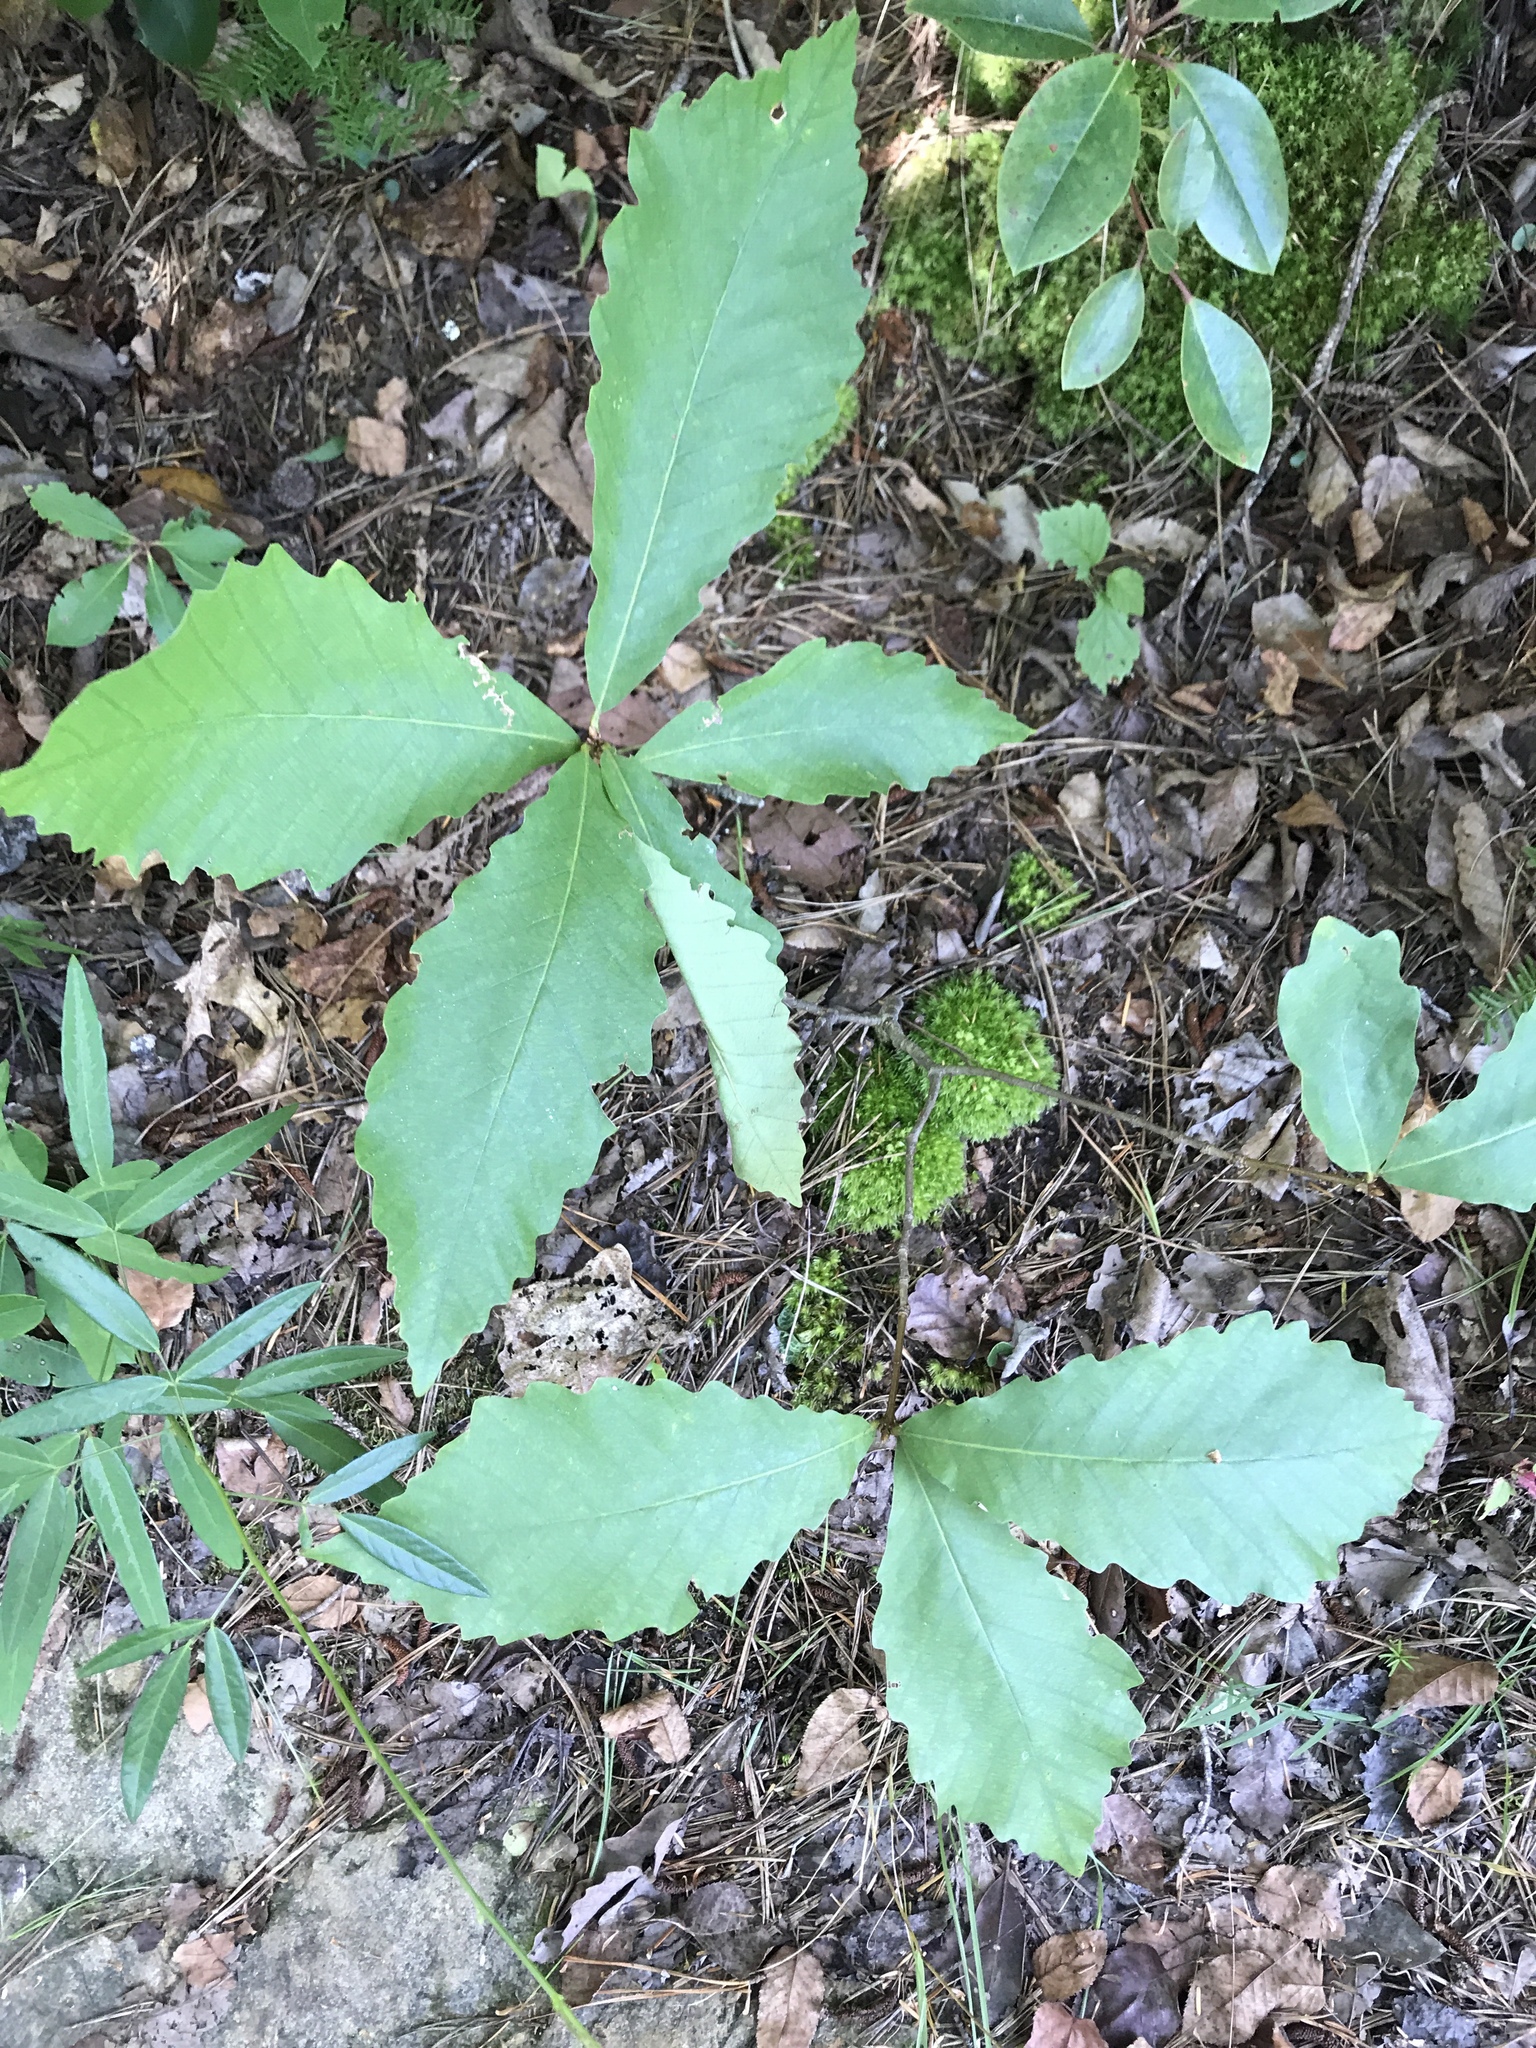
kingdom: Plantae
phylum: Tracheophyta
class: Magnoliopsida
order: Fagales
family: Fagaceae
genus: Quercus
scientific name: Quercus montana
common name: Chestnut oak
